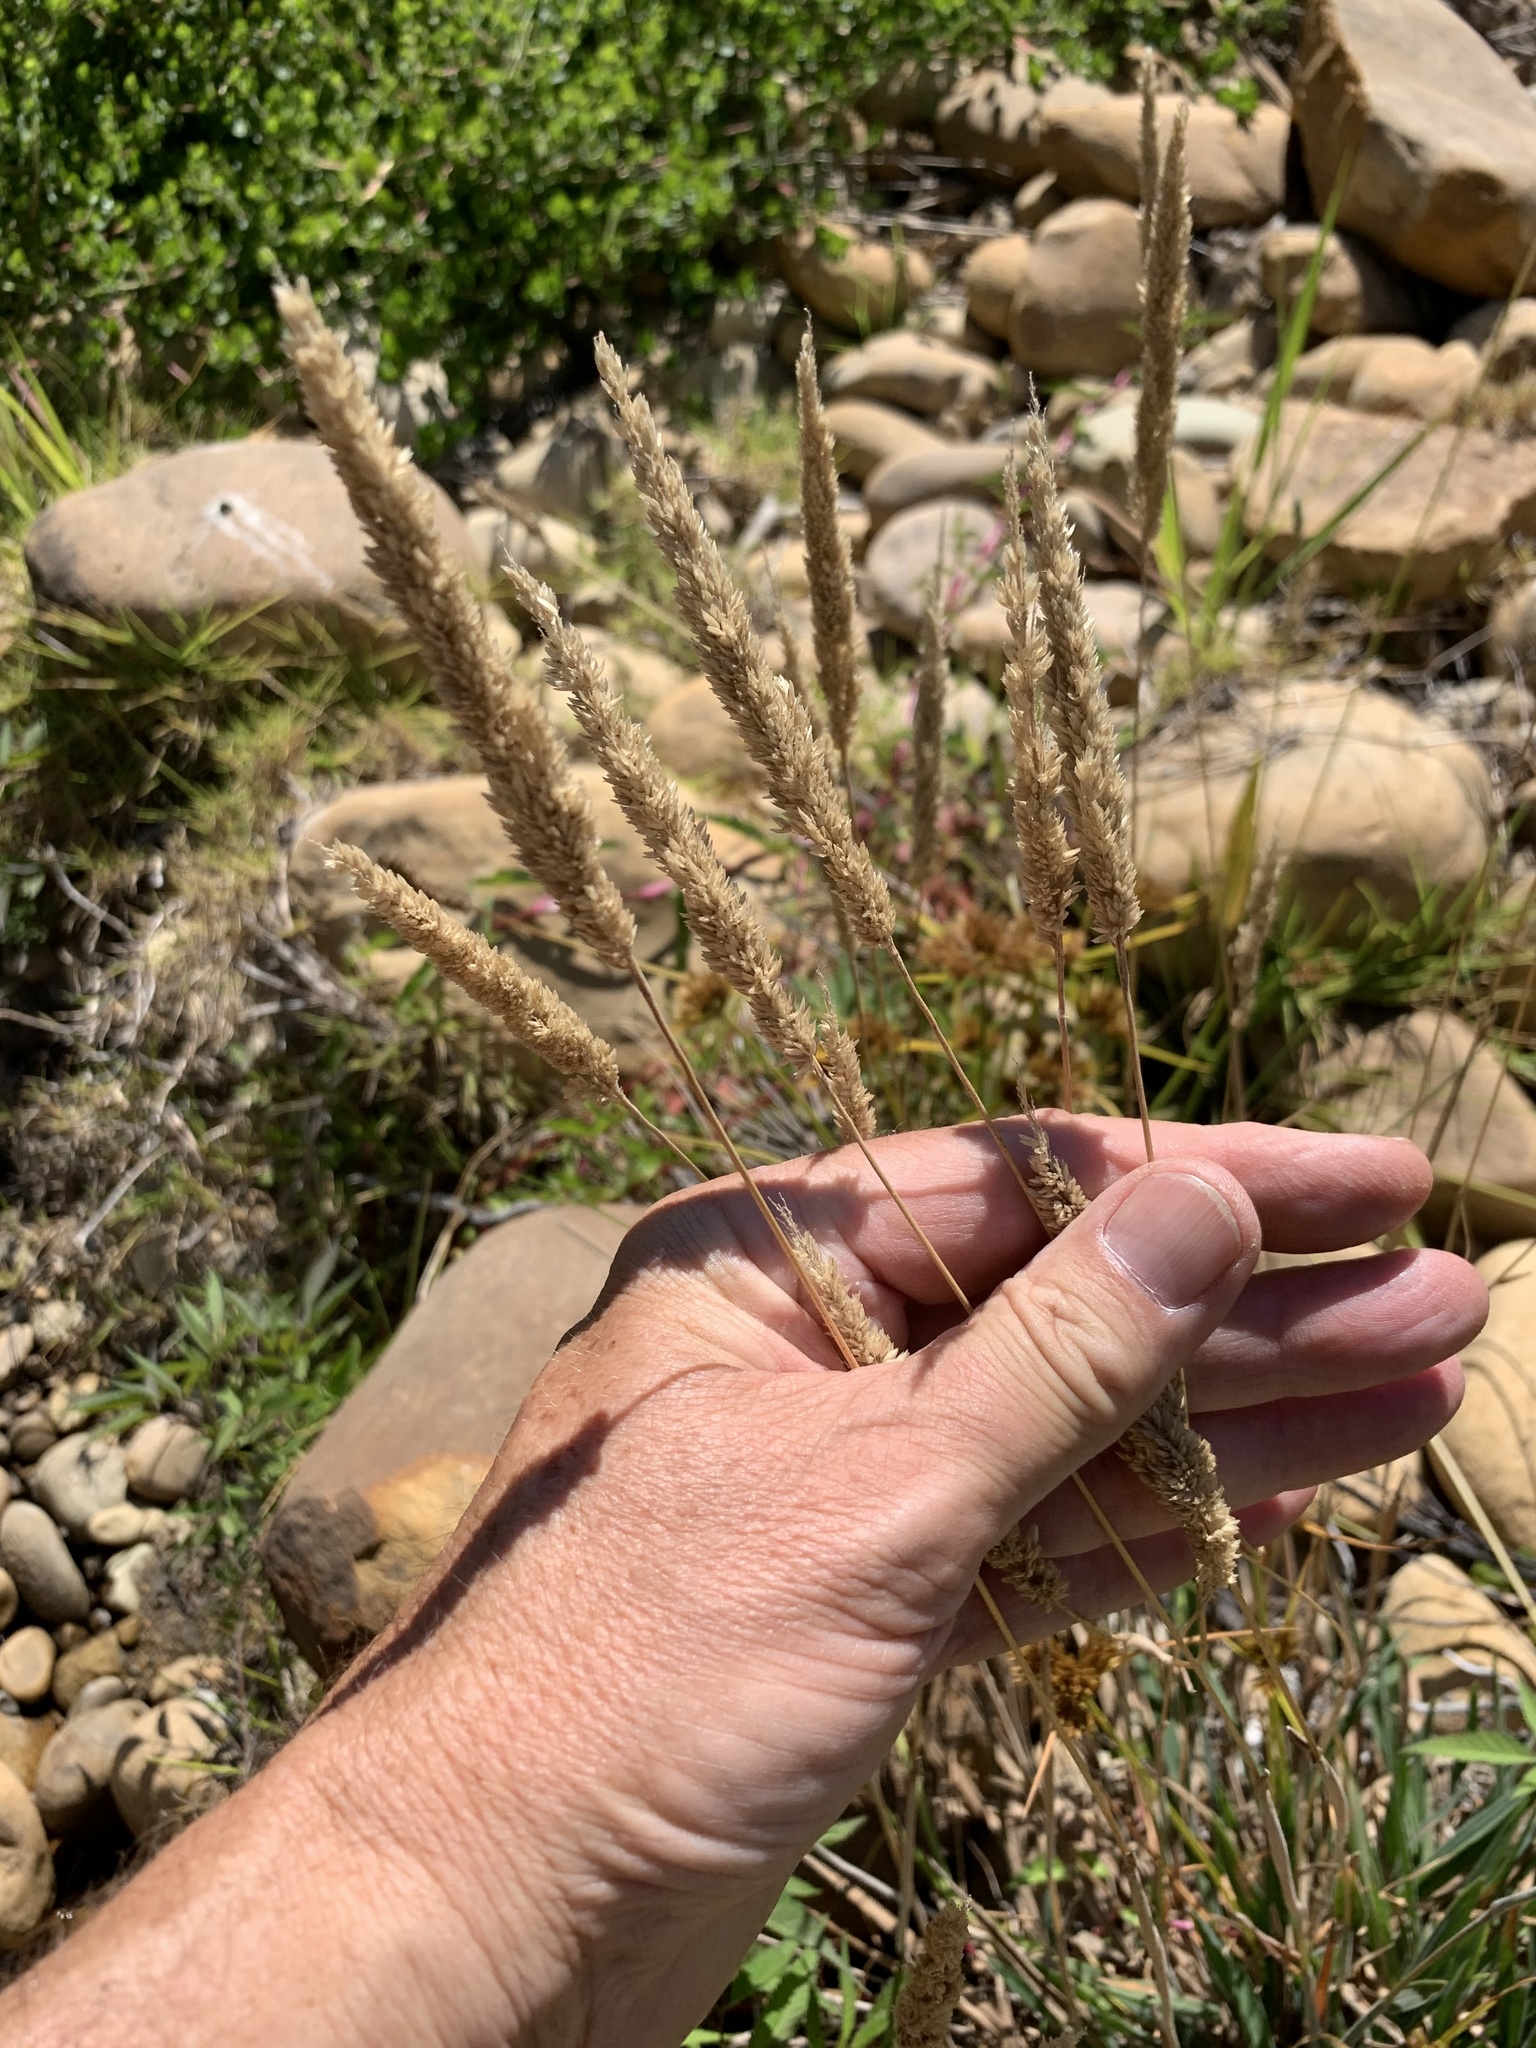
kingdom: Plantae
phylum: Tracheophyta
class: Liliopsida
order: Poales
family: Poaceae
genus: Holcus
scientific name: Holcus lanatus
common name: Yorkshire-fog
